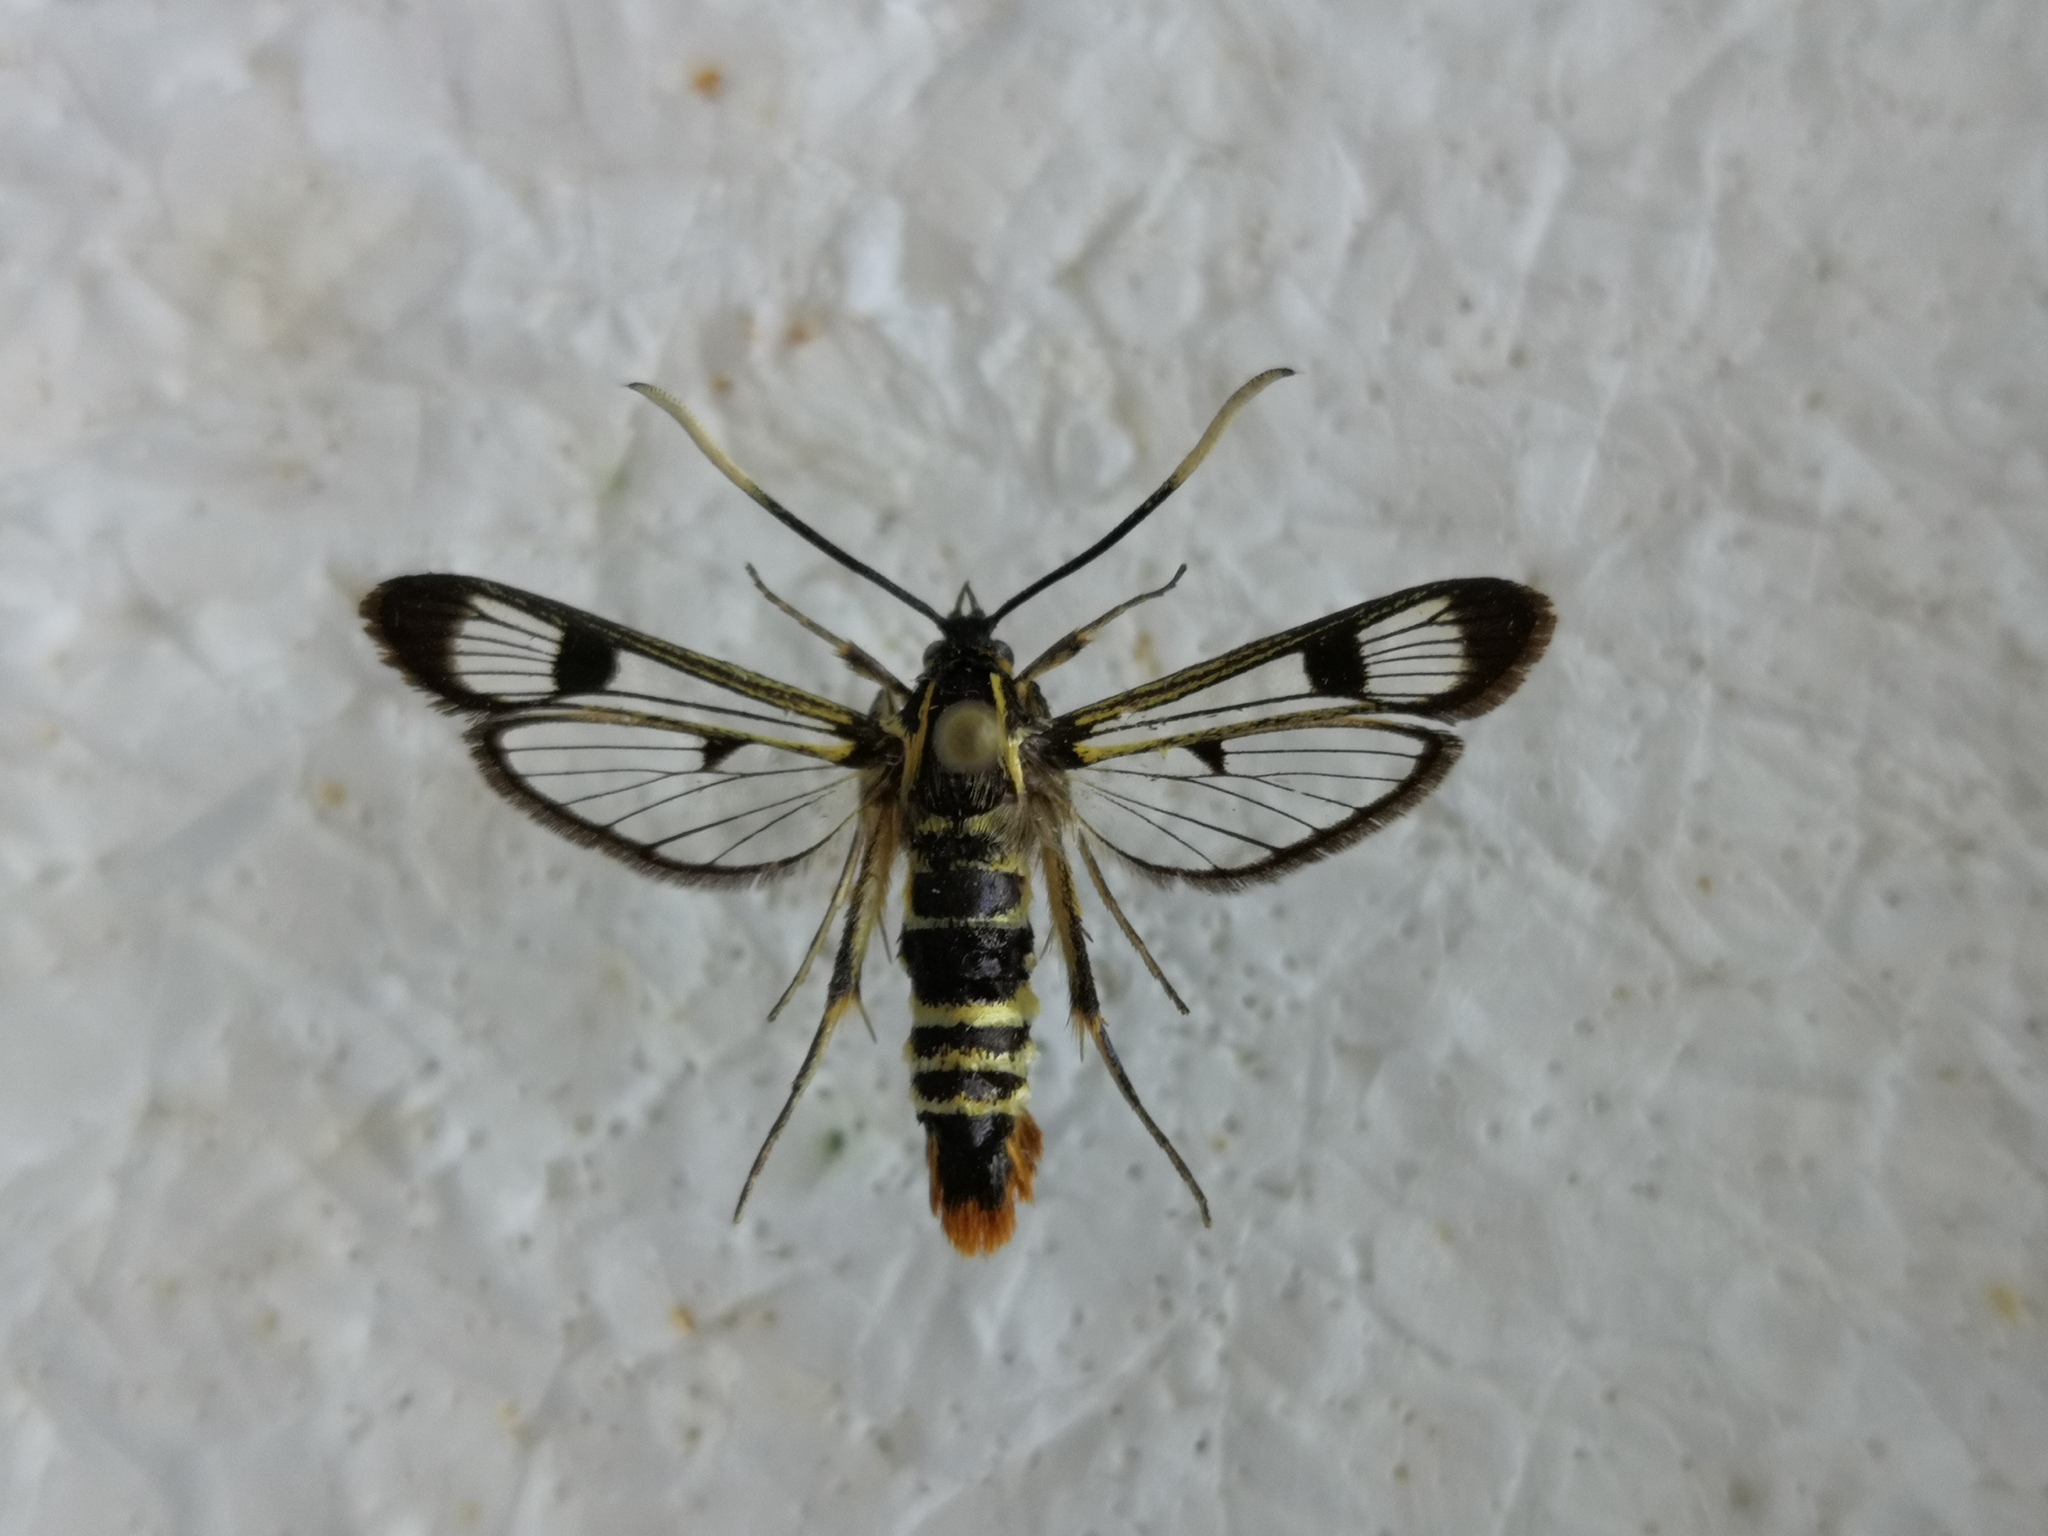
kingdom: Animalia
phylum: Arthropoda
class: Insecta
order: Lepidoptera
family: Sesiidae
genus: Synanthedon
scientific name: Synanthedon scoliaeformis
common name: Welsh clearwing
